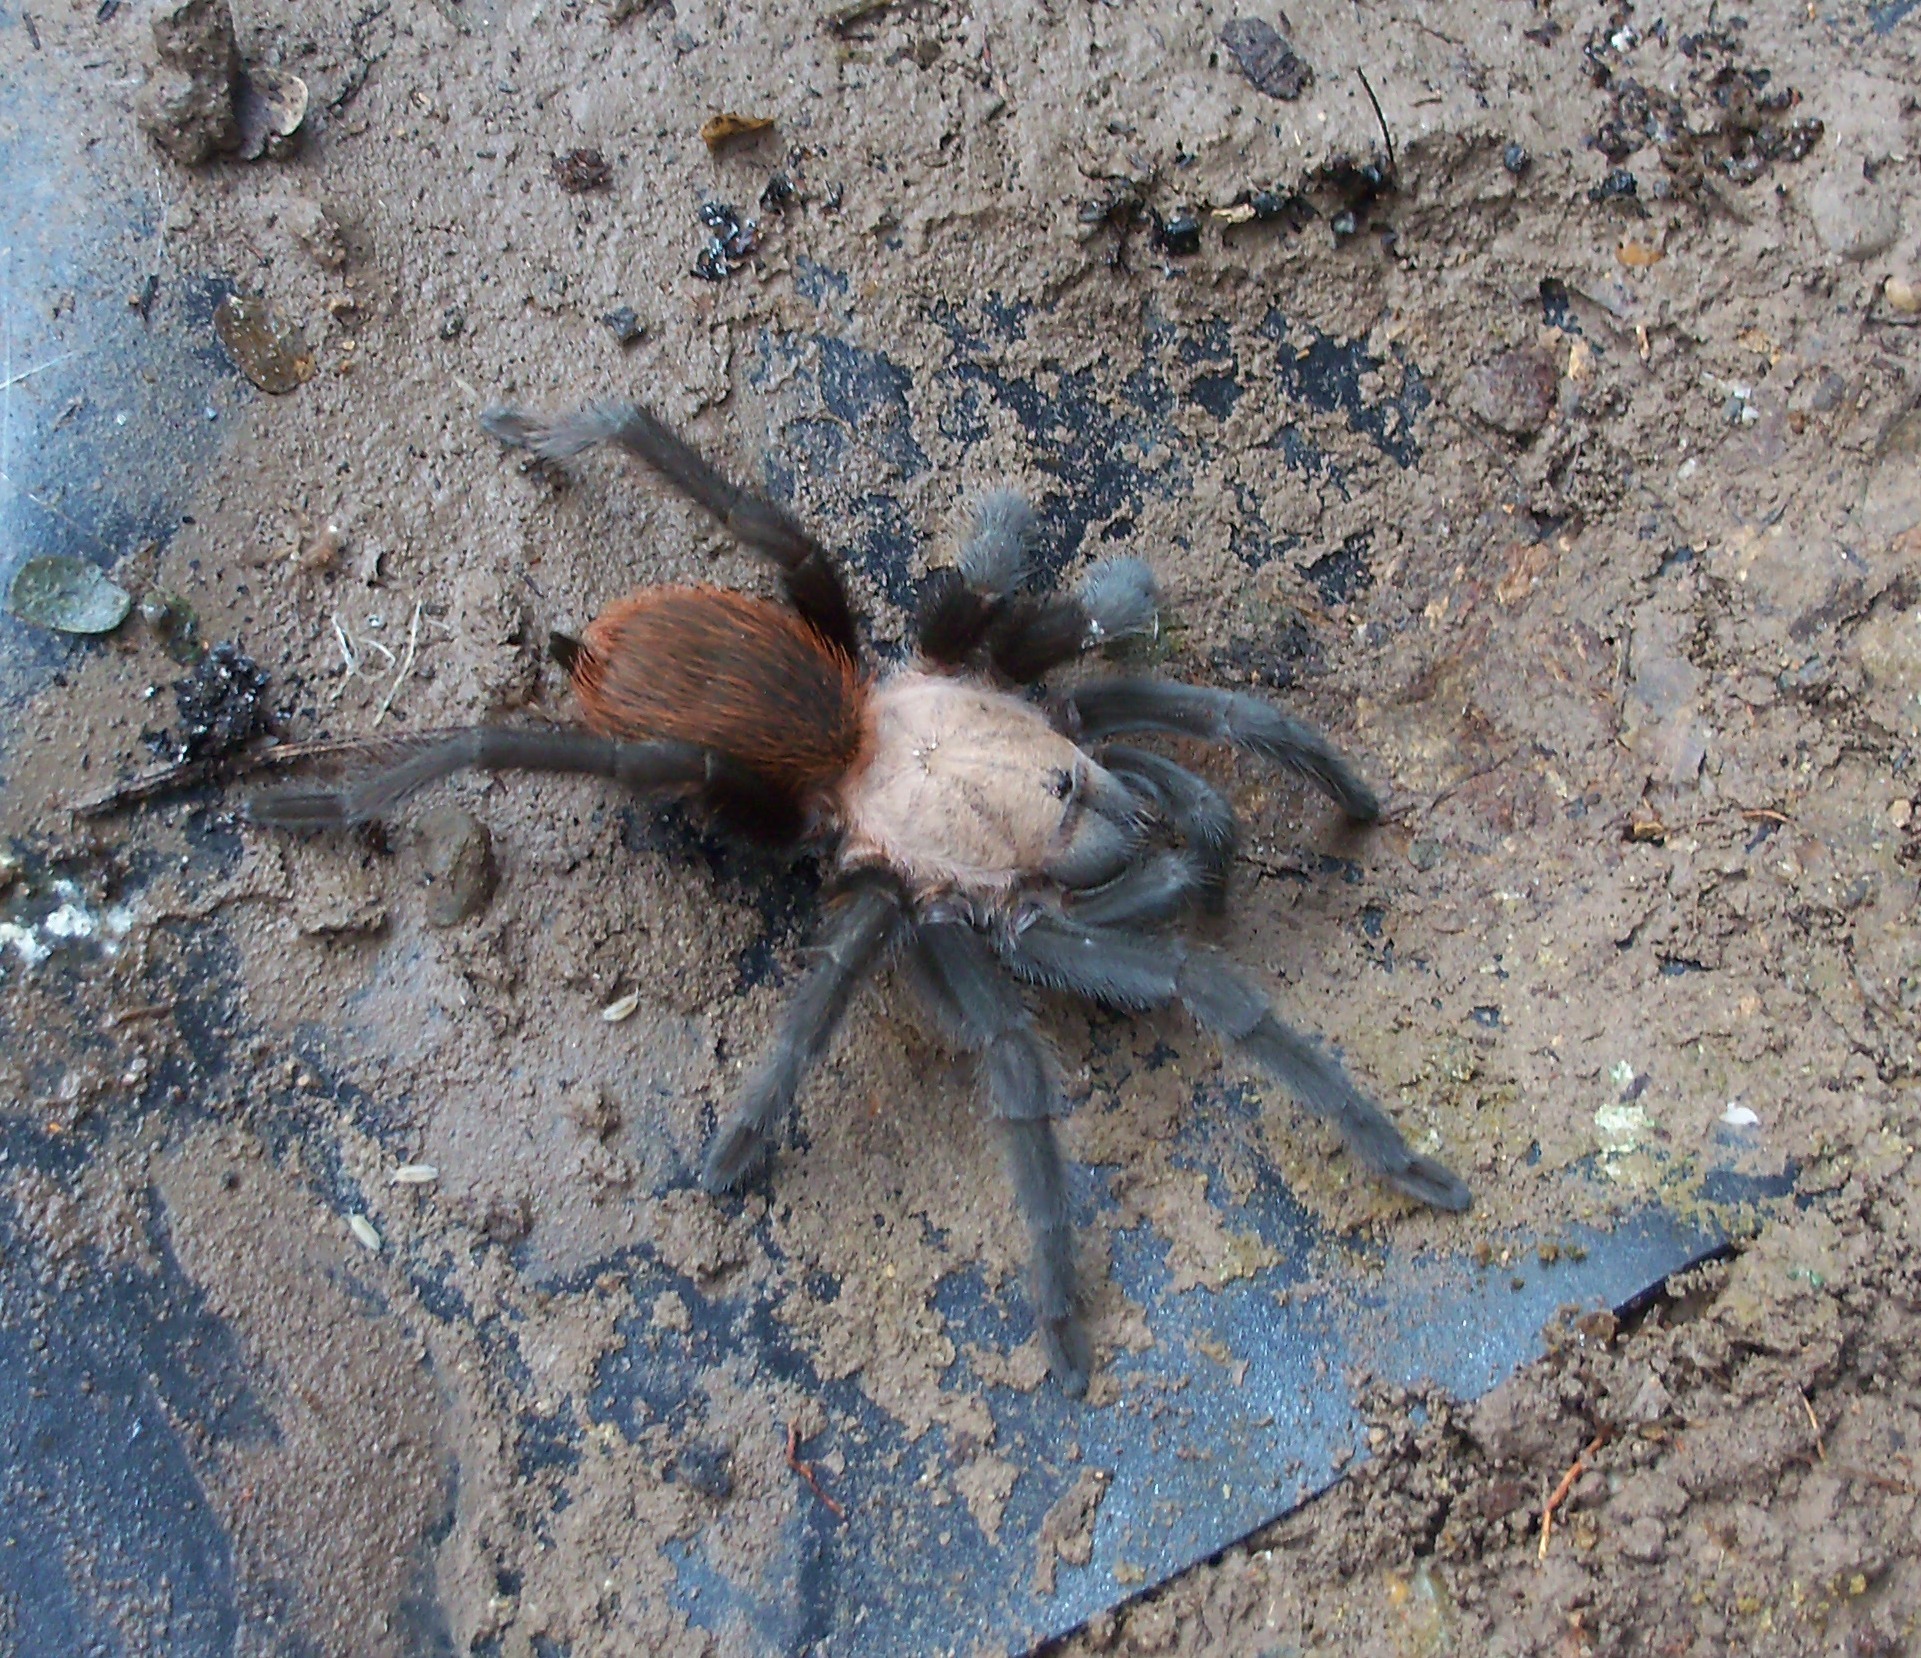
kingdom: Animalia
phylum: Arthropoda
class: Arachnida
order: Araneae
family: Theraphosidae
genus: Aphonopelma
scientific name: Aphonopelma anax
